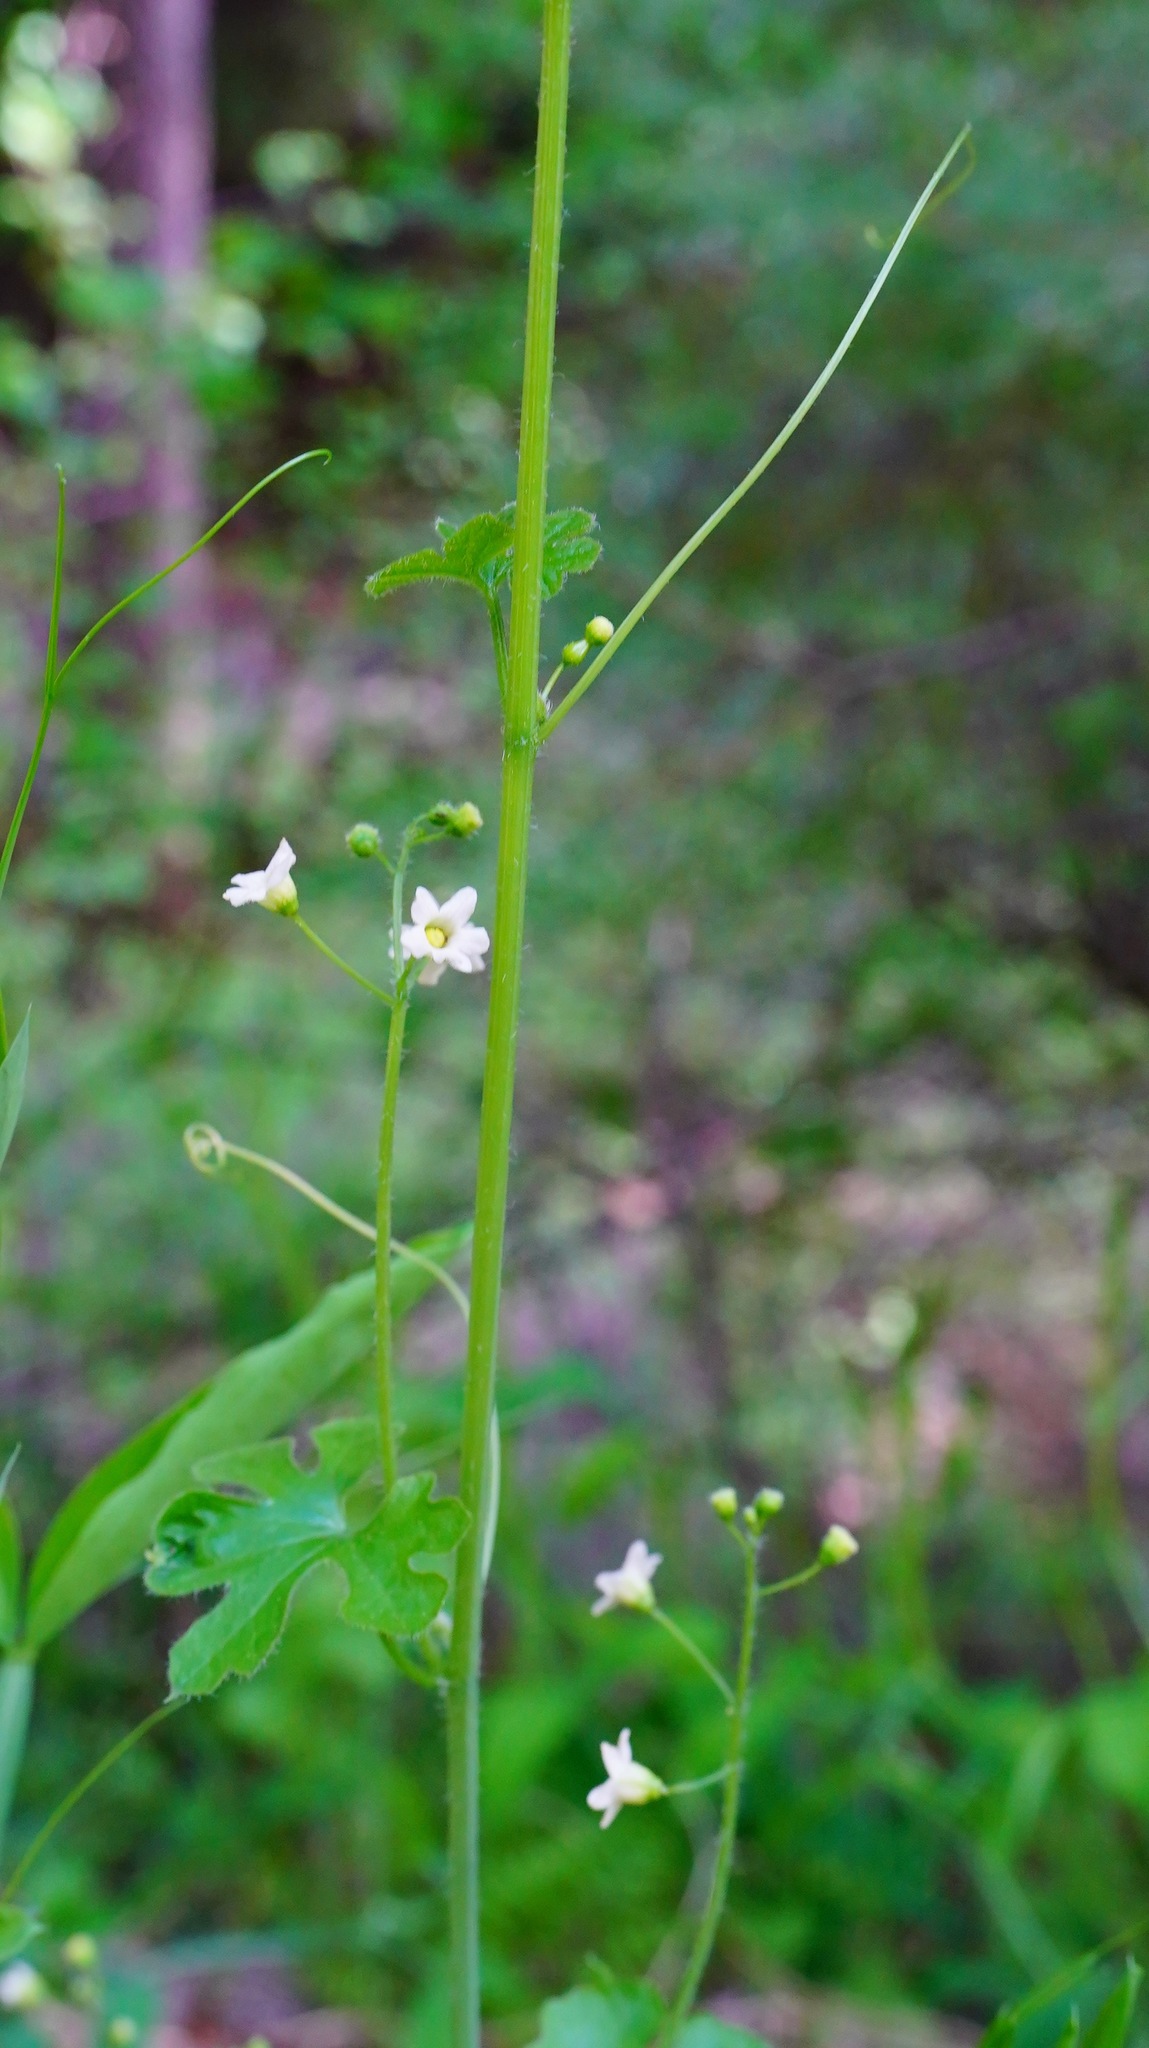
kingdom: Plantae
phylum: Tracheophyta
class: Magnoliopsida
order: Cucurbitales
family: Cucurbitaceae
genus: Marah
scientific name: Marah watsonii
